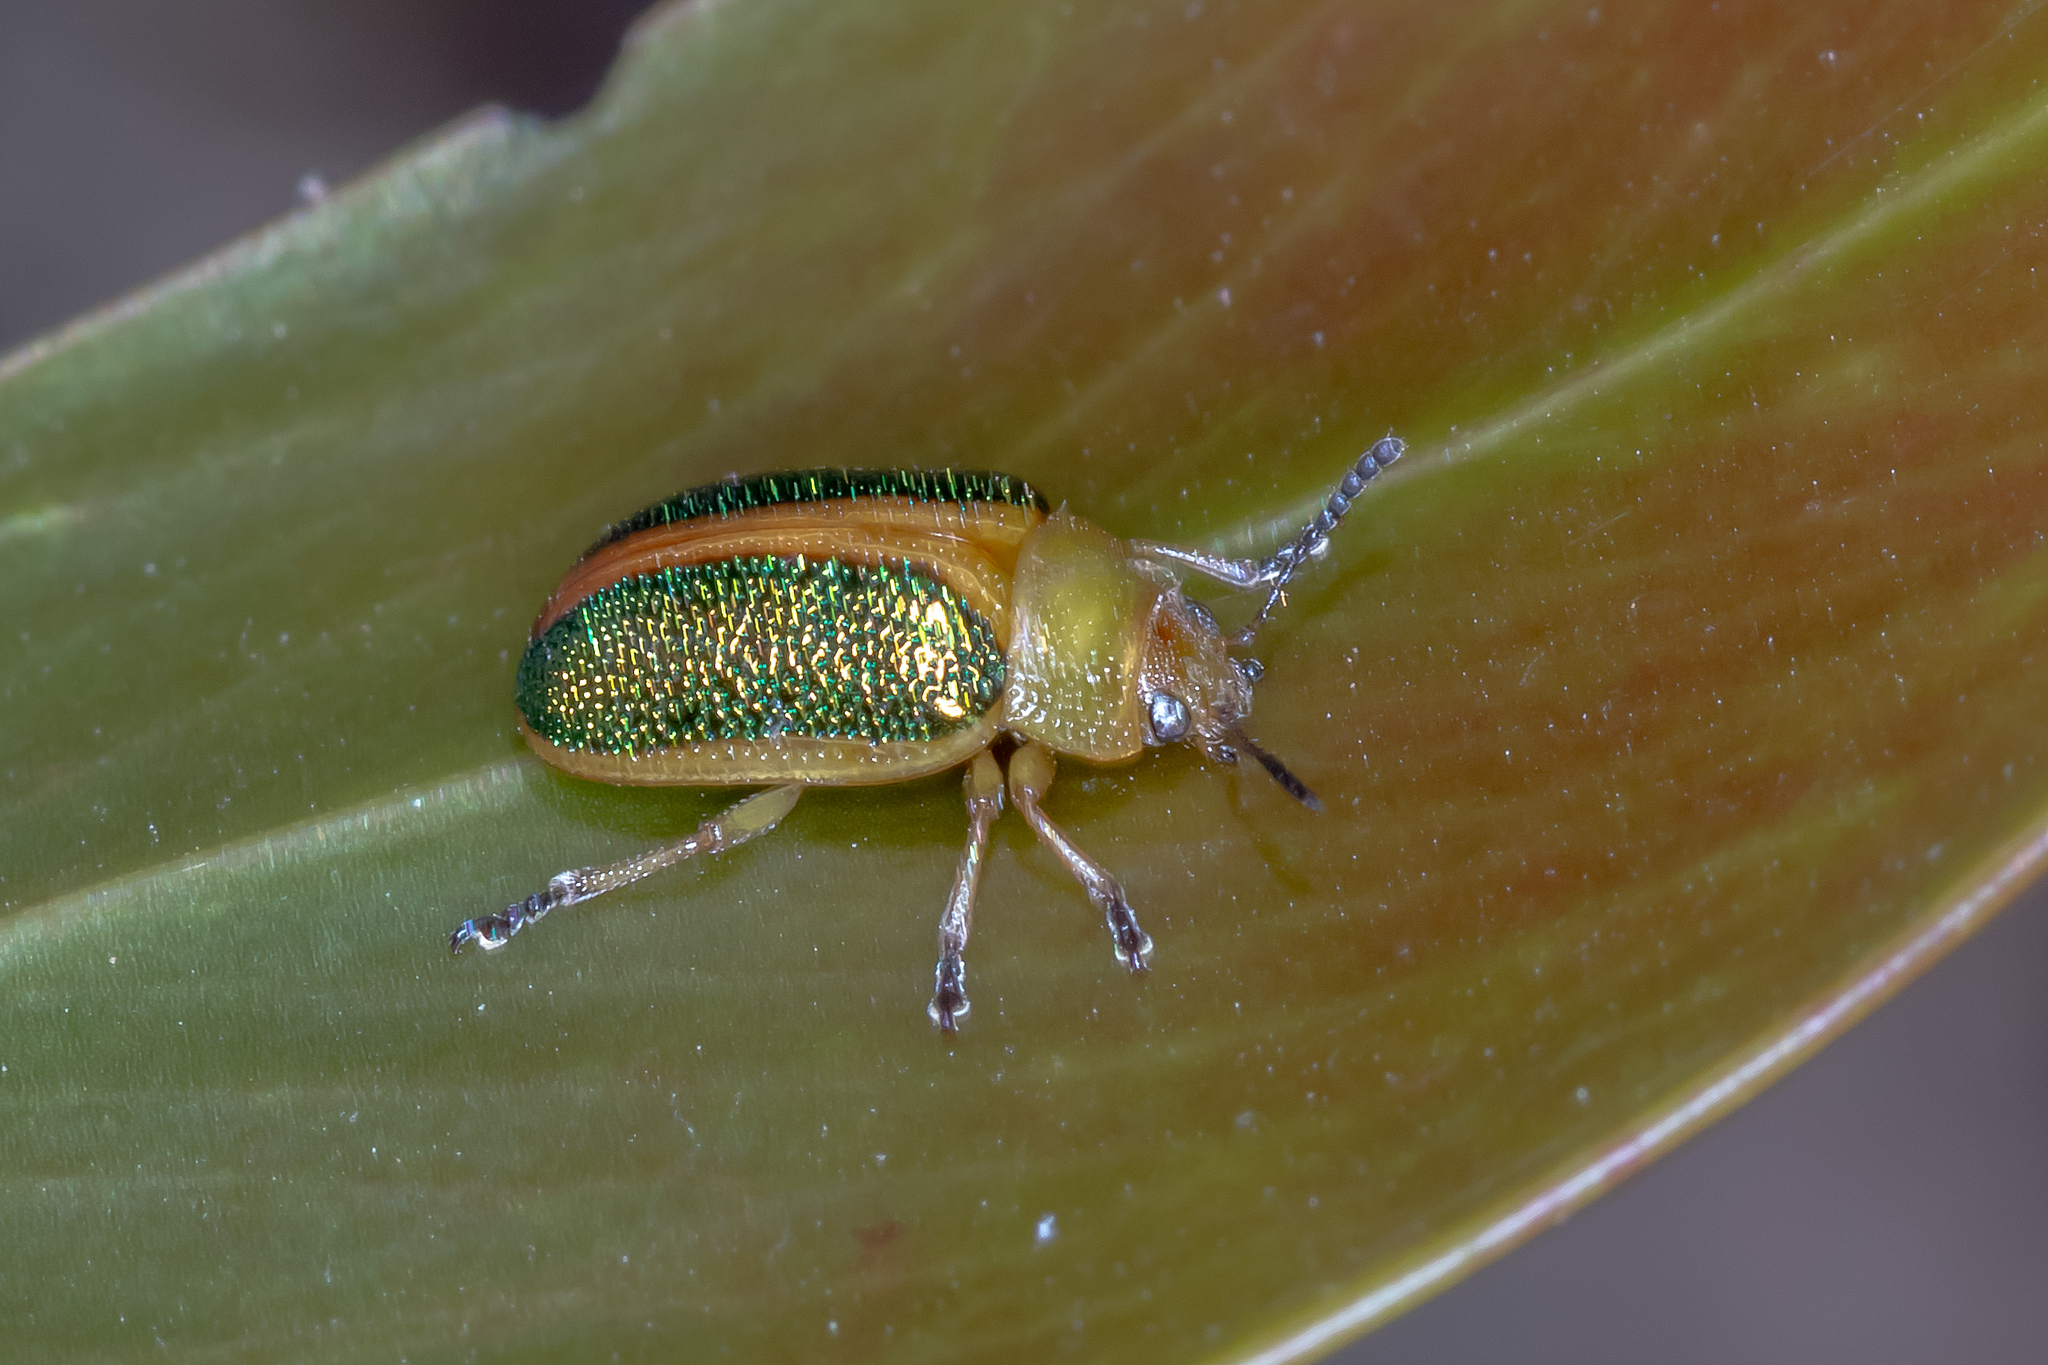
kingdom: Animalia
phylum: Arthropoda
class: Insecta
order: Coleoptera
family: Chrysomelidae
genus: Calomela
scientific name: Calomela
